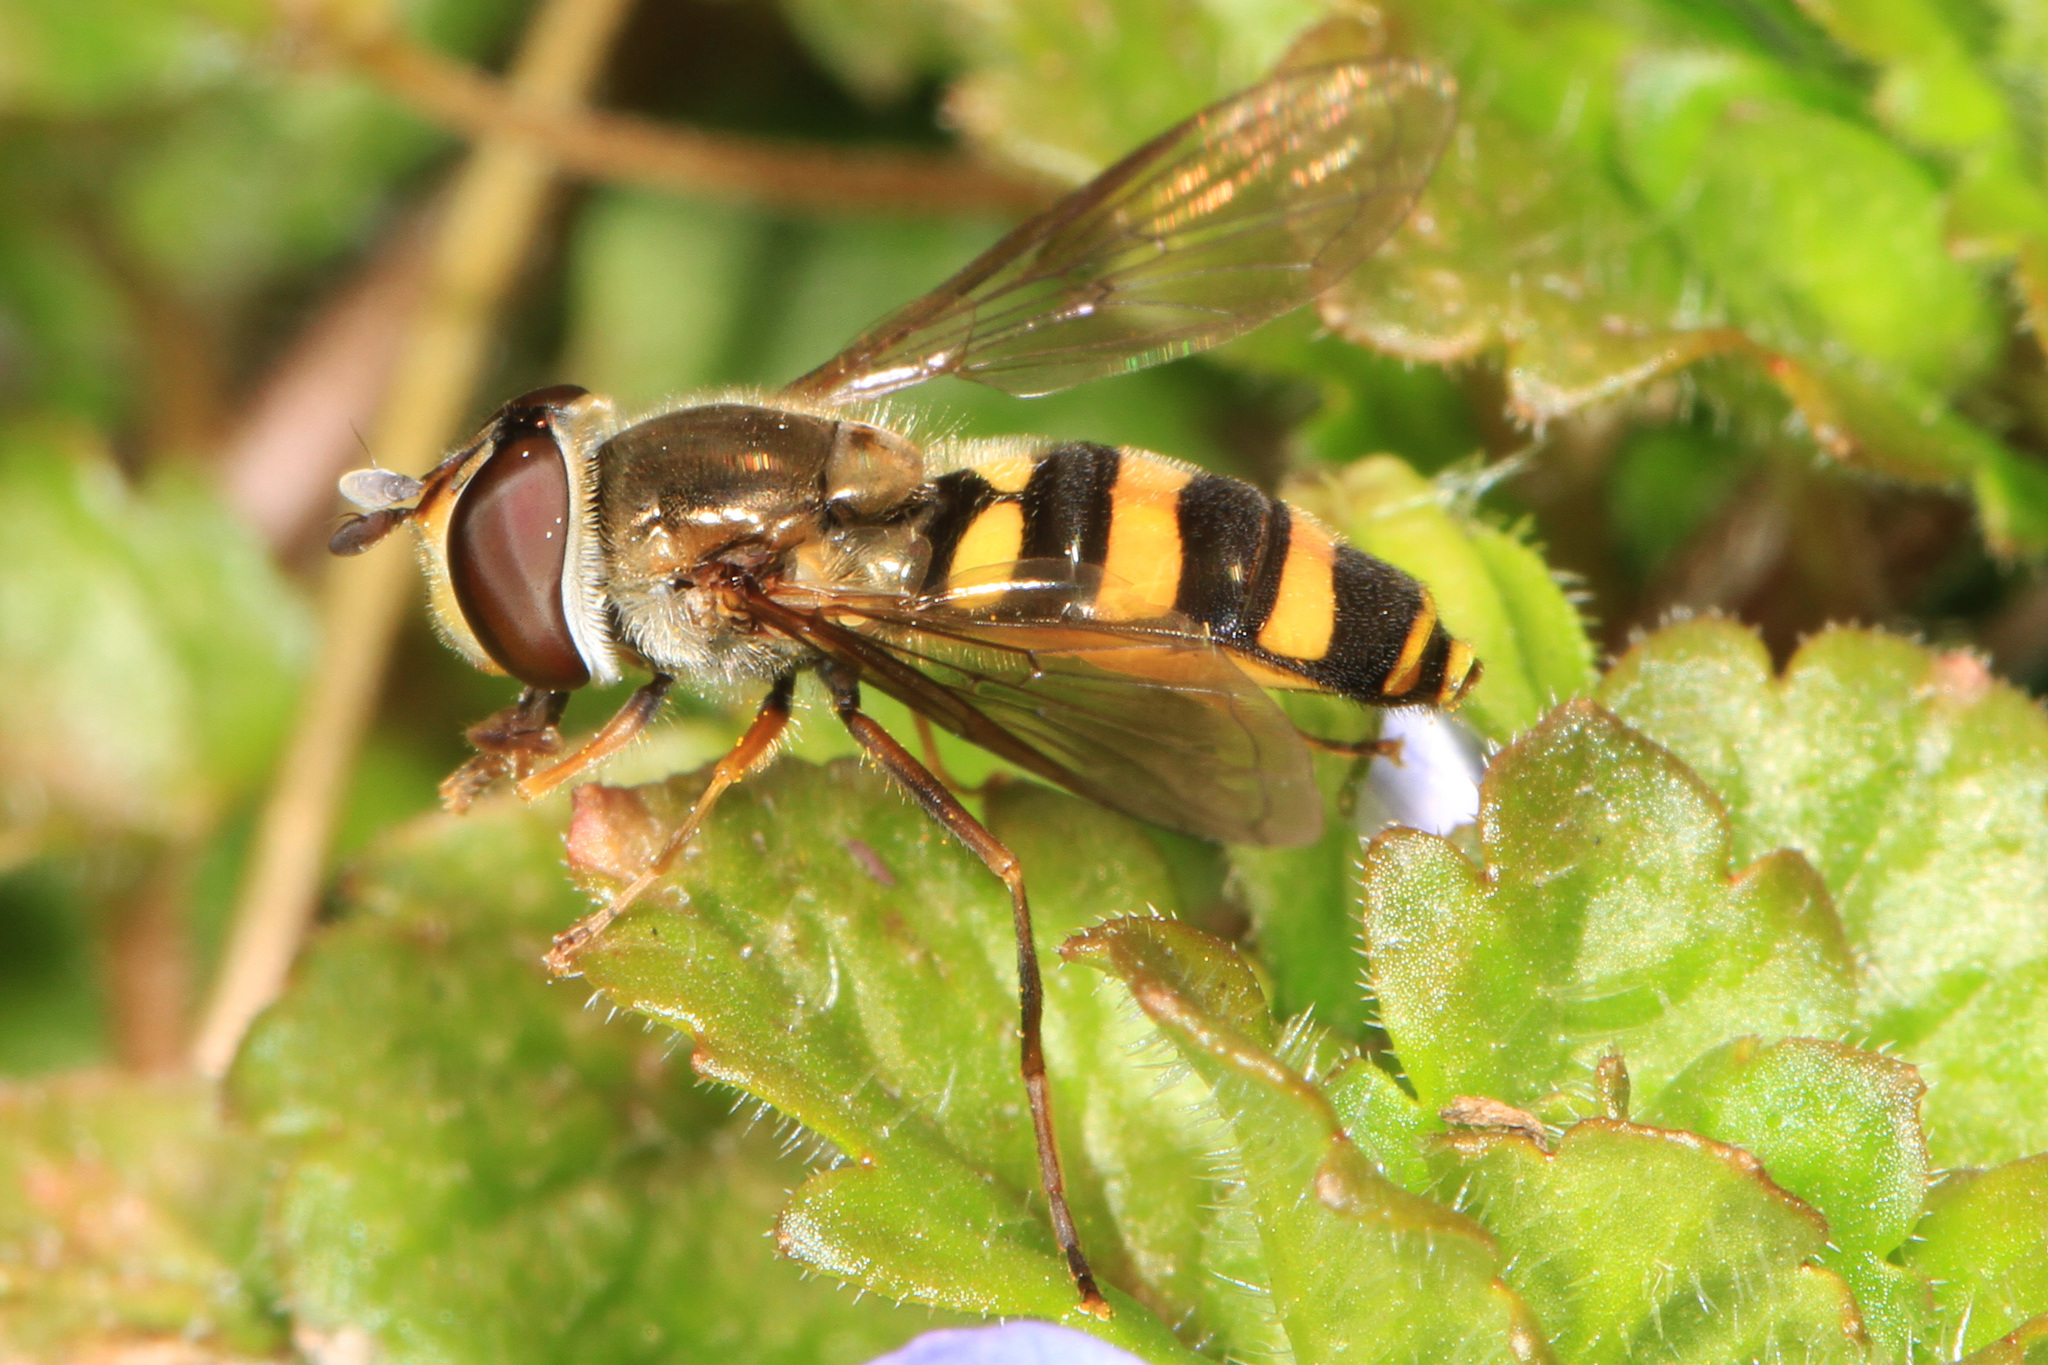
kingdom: Animalia
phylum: Arthropoda
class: Insecta
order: Diptera
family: Syrphidae
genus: Eupeodes
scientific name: Eupeodes
